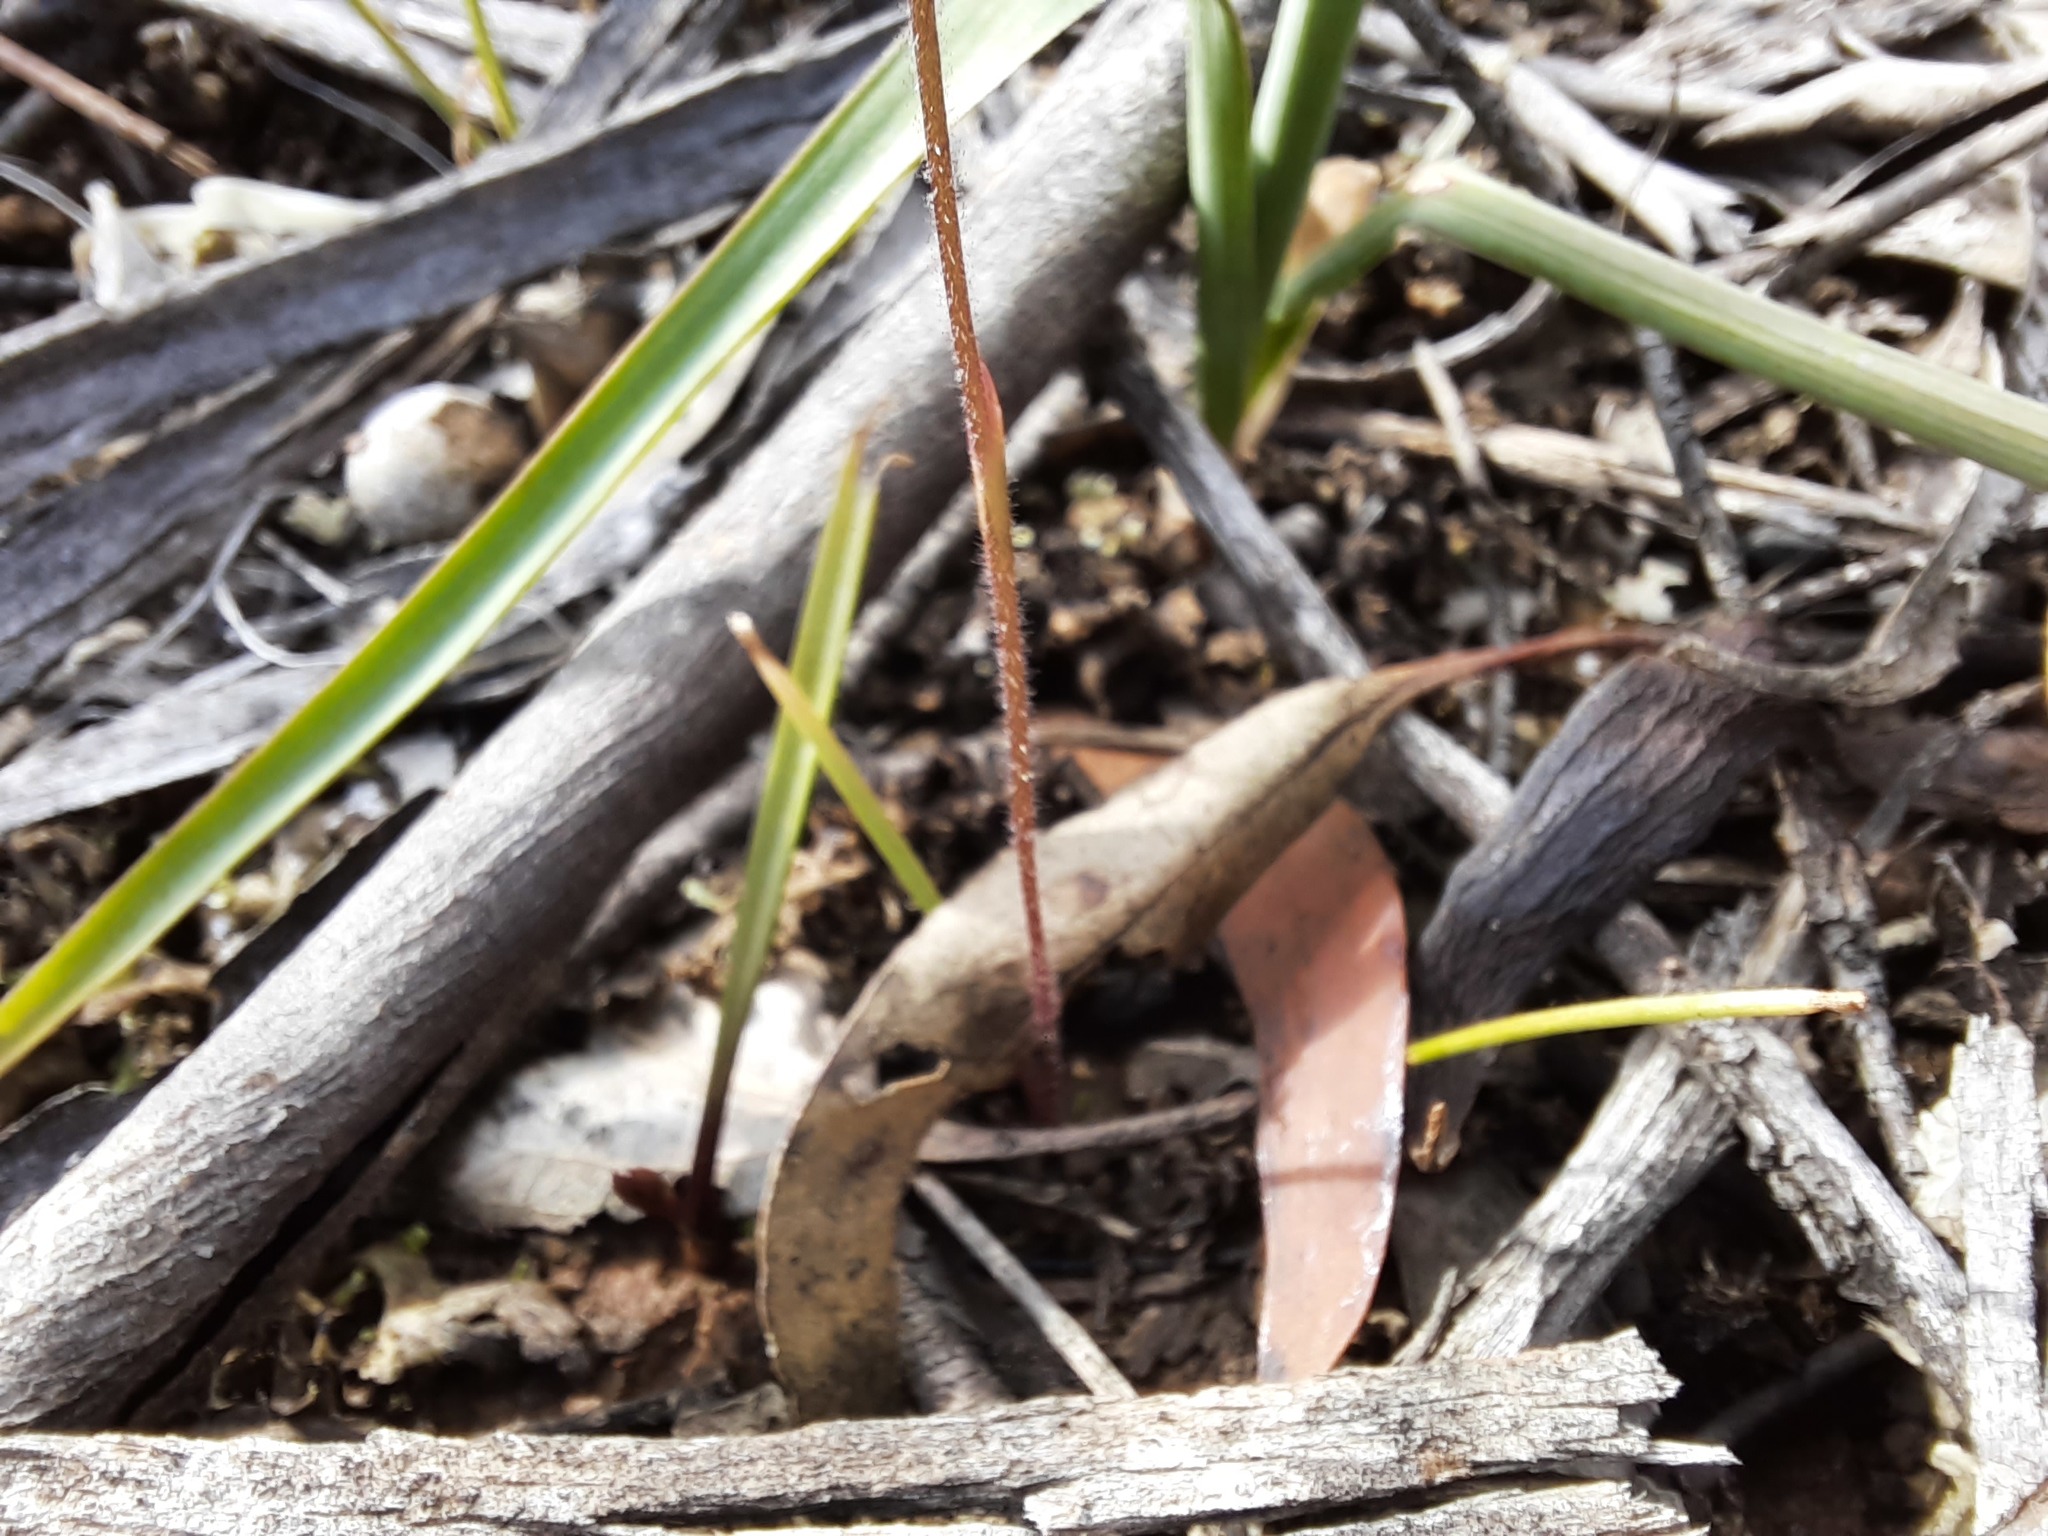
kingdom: Plantae
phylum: Tracheophyta
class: Liliopsida
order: Asparagales
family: Orchidaceae
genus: Caladenia
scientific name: Caladenia cucullata
